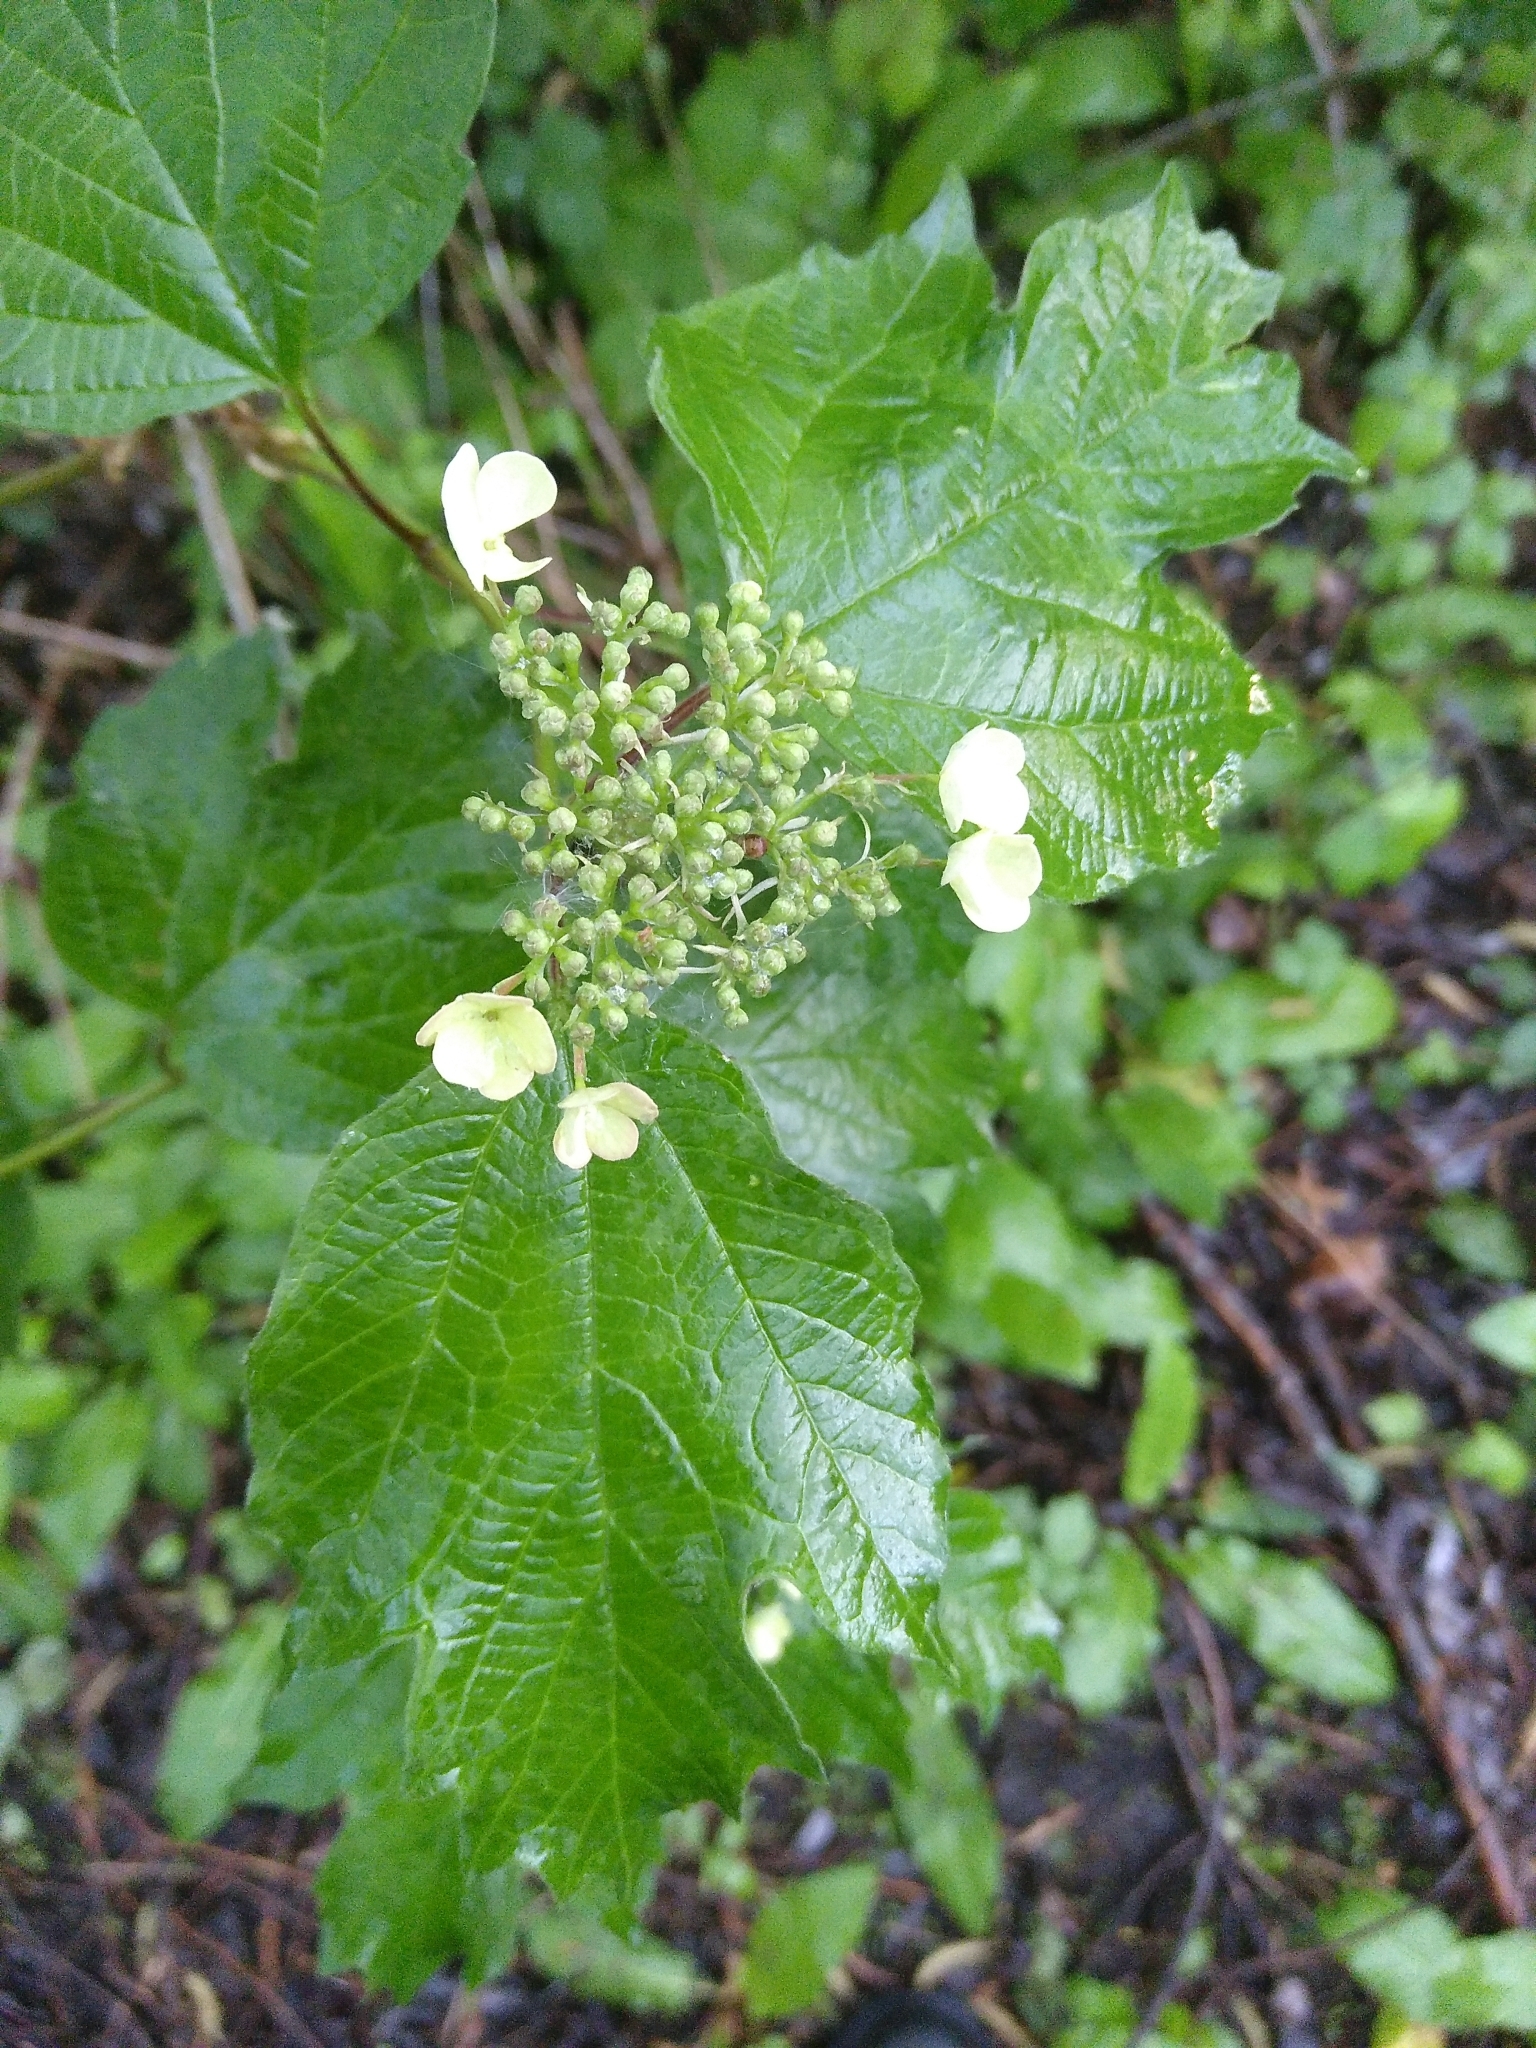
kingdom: Plantae
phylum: Tracheophyta
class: Magnoliopsida
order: Dipsacales
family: Viburnaceae
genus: Viburnum
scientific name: Viburnum opulus
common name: Guelder-rose
